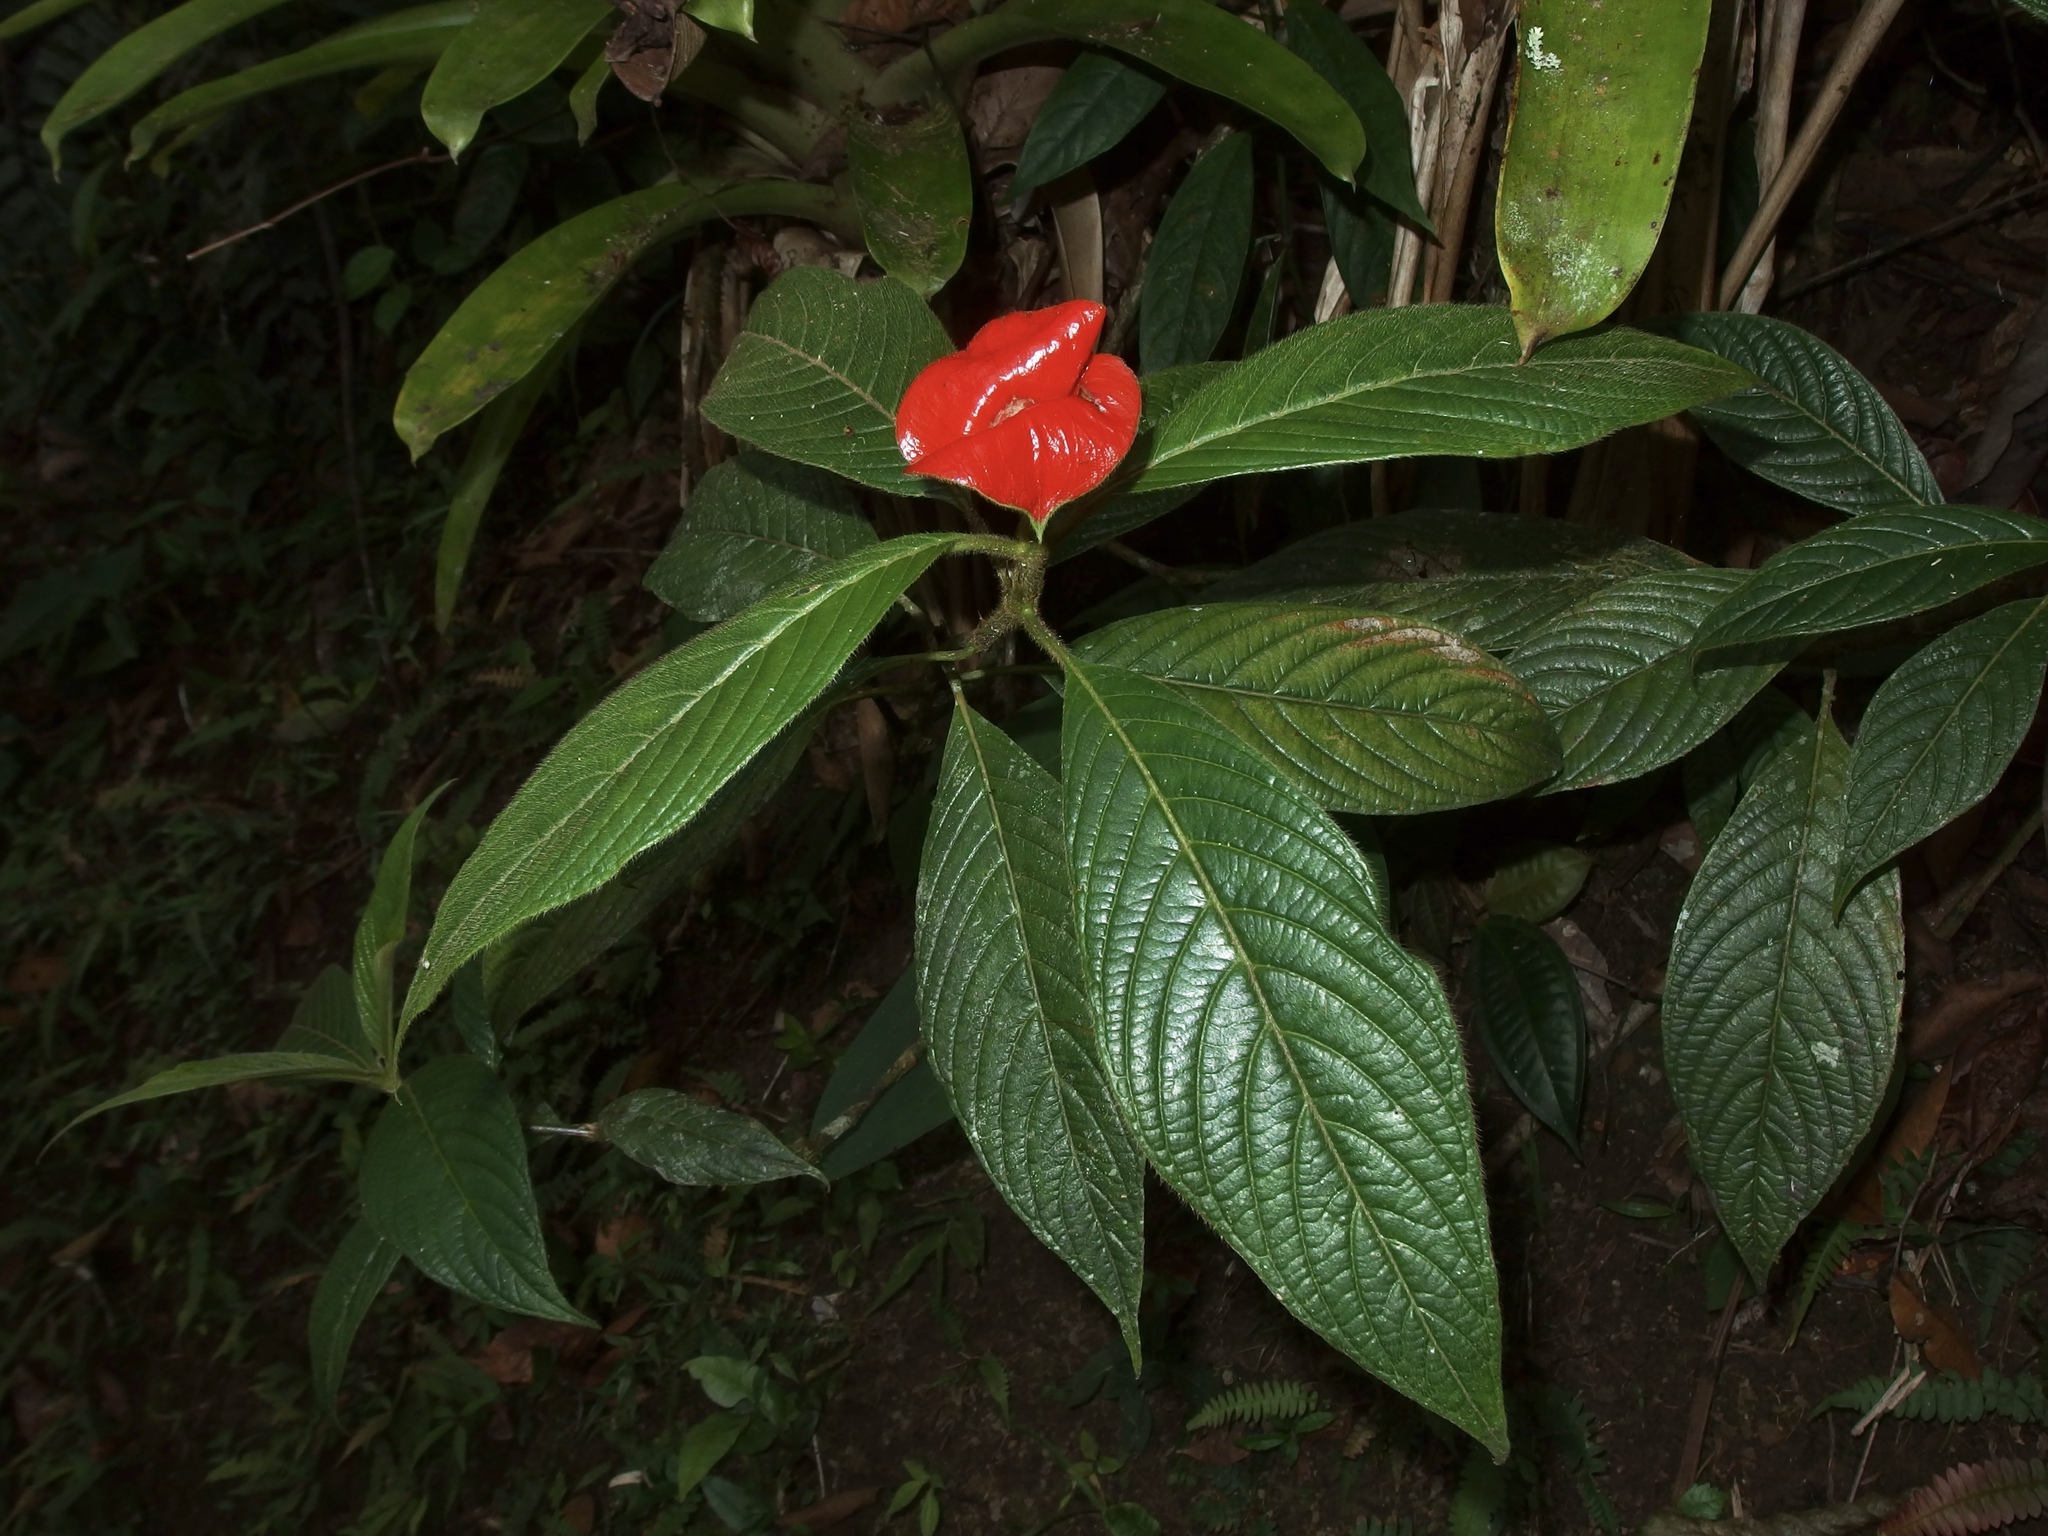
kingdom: Plantae
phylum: Tracheophyta
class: Magnoliopsida
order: Gentianales
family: Rubiaceae
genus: Palicourea
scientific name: Palicourea tomentosa
